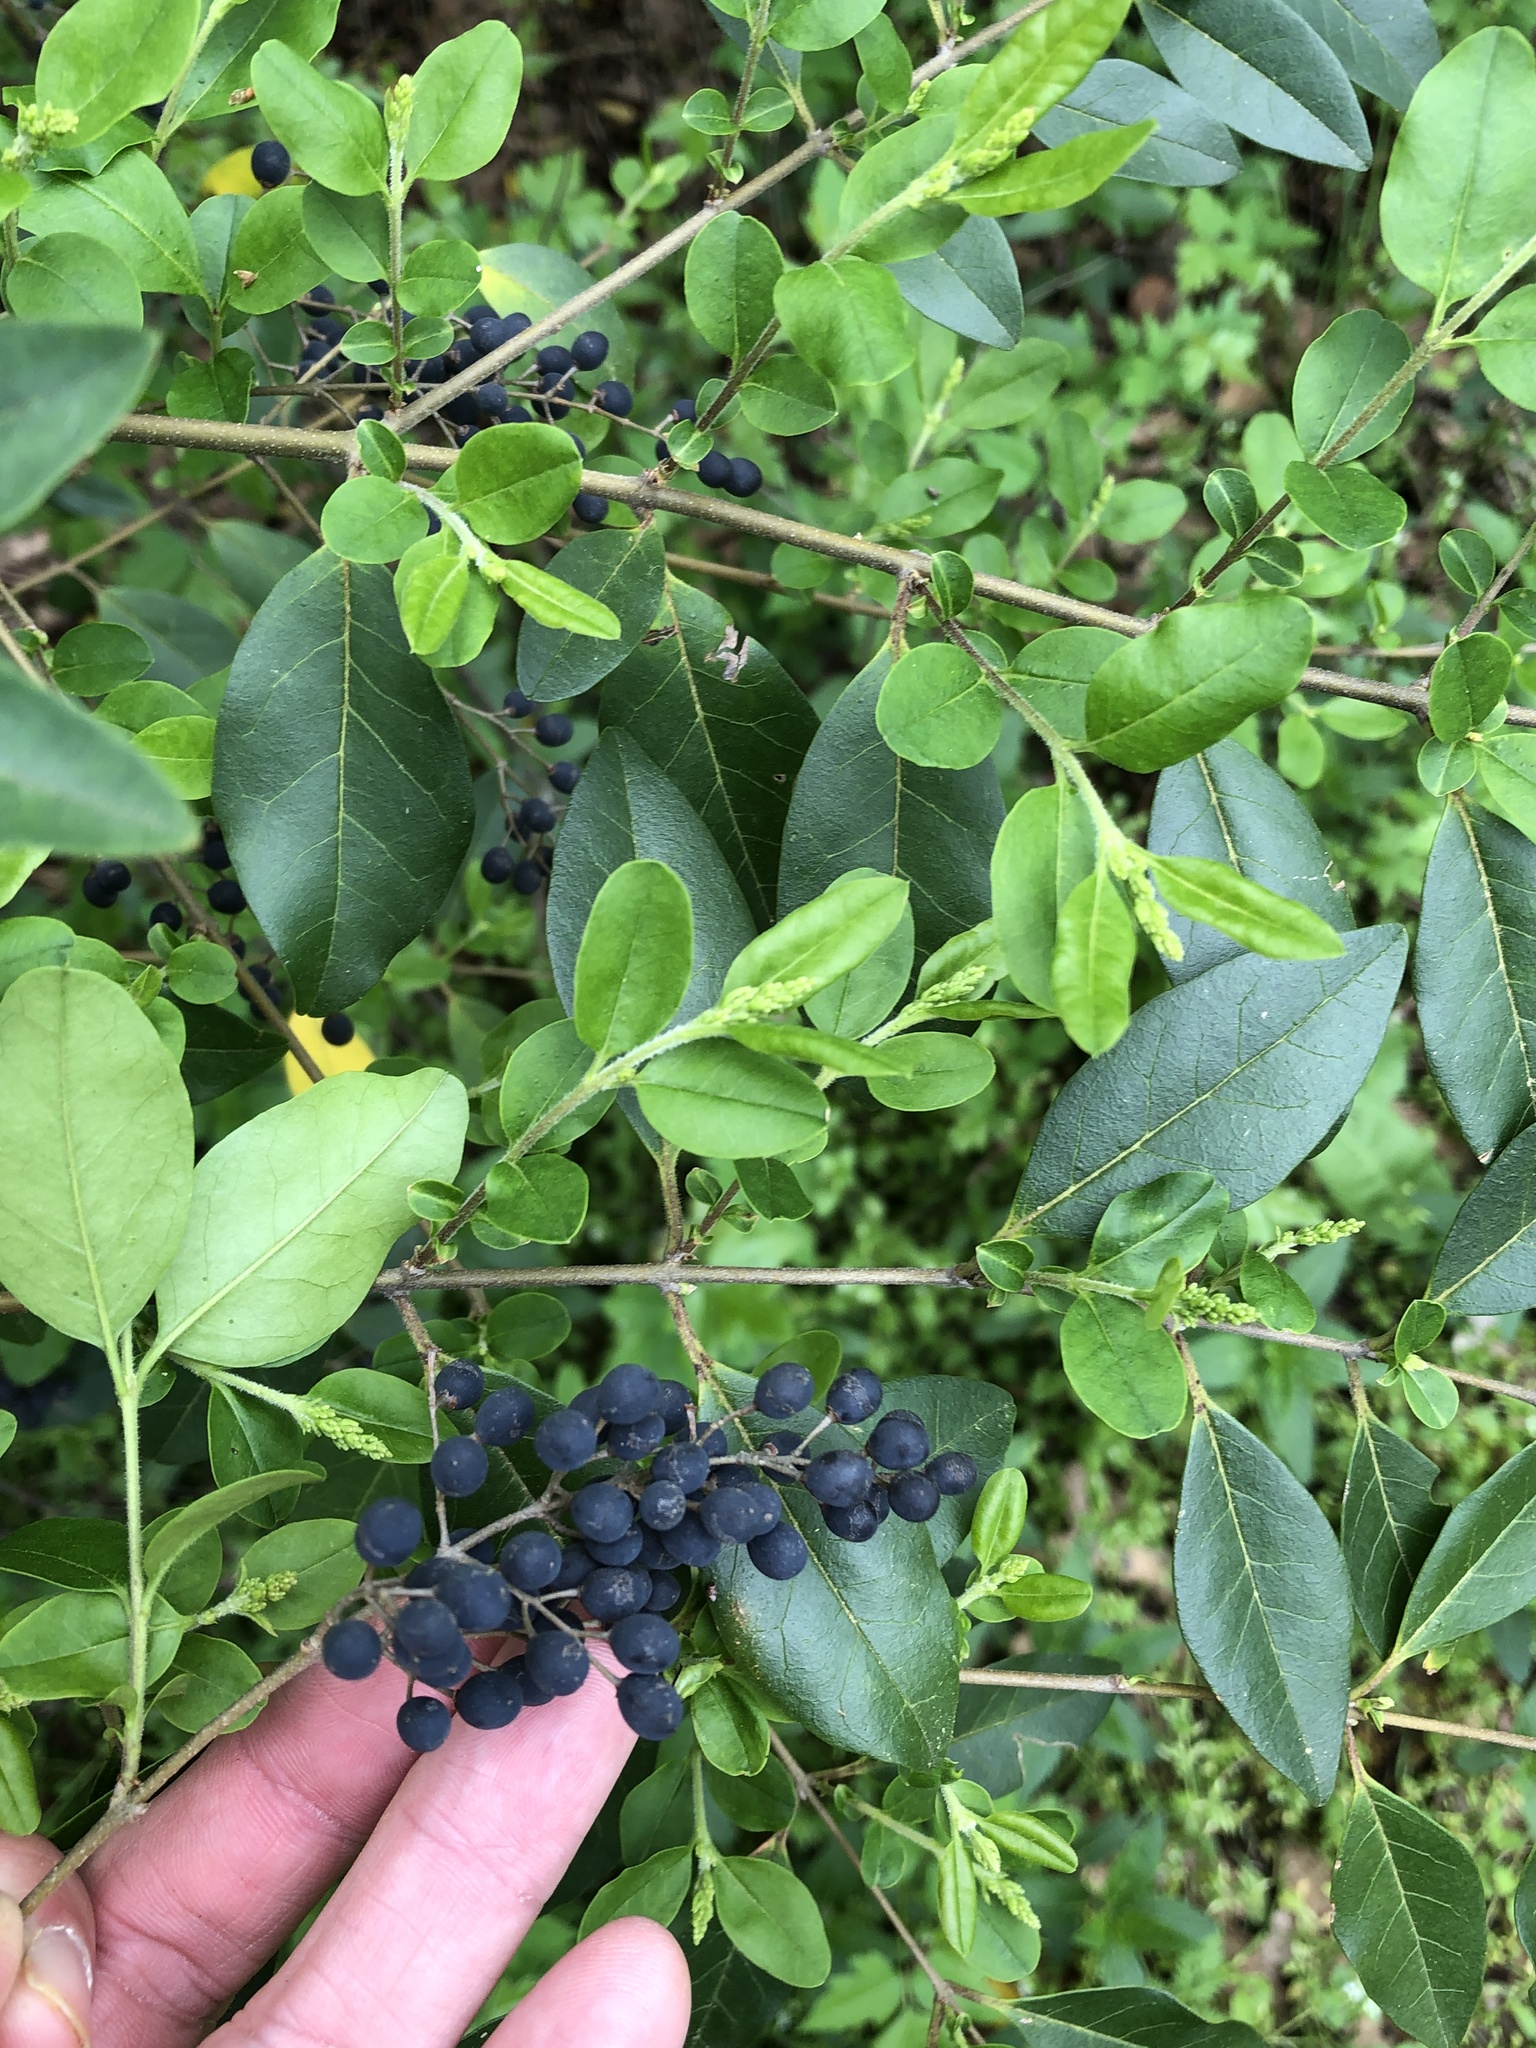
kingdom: Plantae
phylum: Tracheophyta
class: Magnoliopsida
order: Lamiales
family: Oleaceae
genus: Ligustrum
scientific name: Ligustrum sinense
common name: Chinese privet
